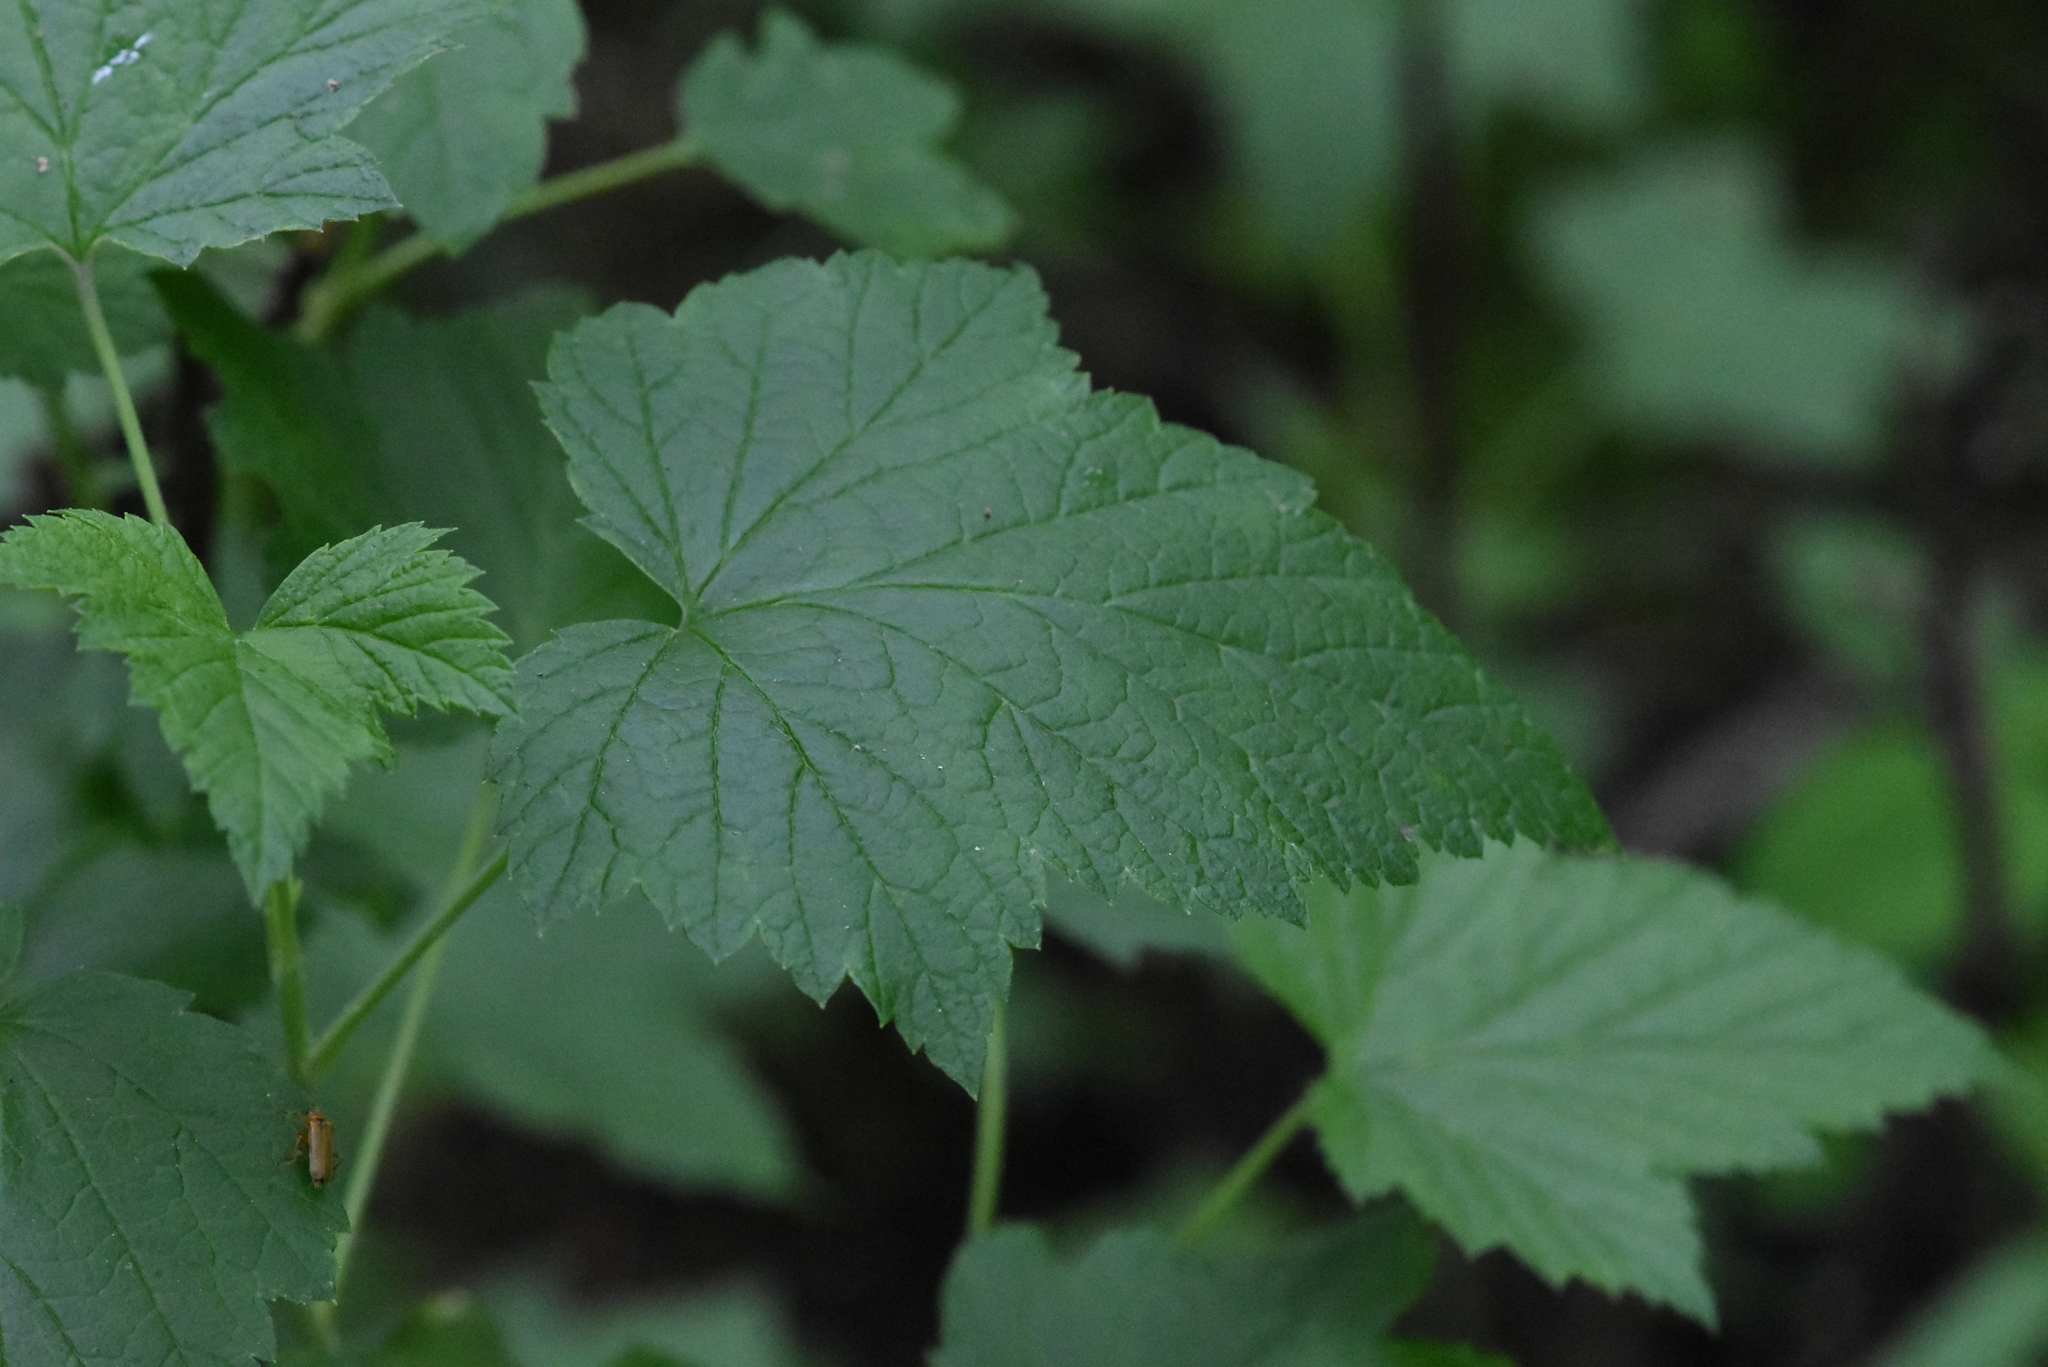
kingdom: Plantae
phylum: Tracheophyta
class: Magnoliopsida
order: Saxifragales
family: Grossulariaceae
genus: Ribes
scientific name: Ribes nigrum
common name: Black currant
